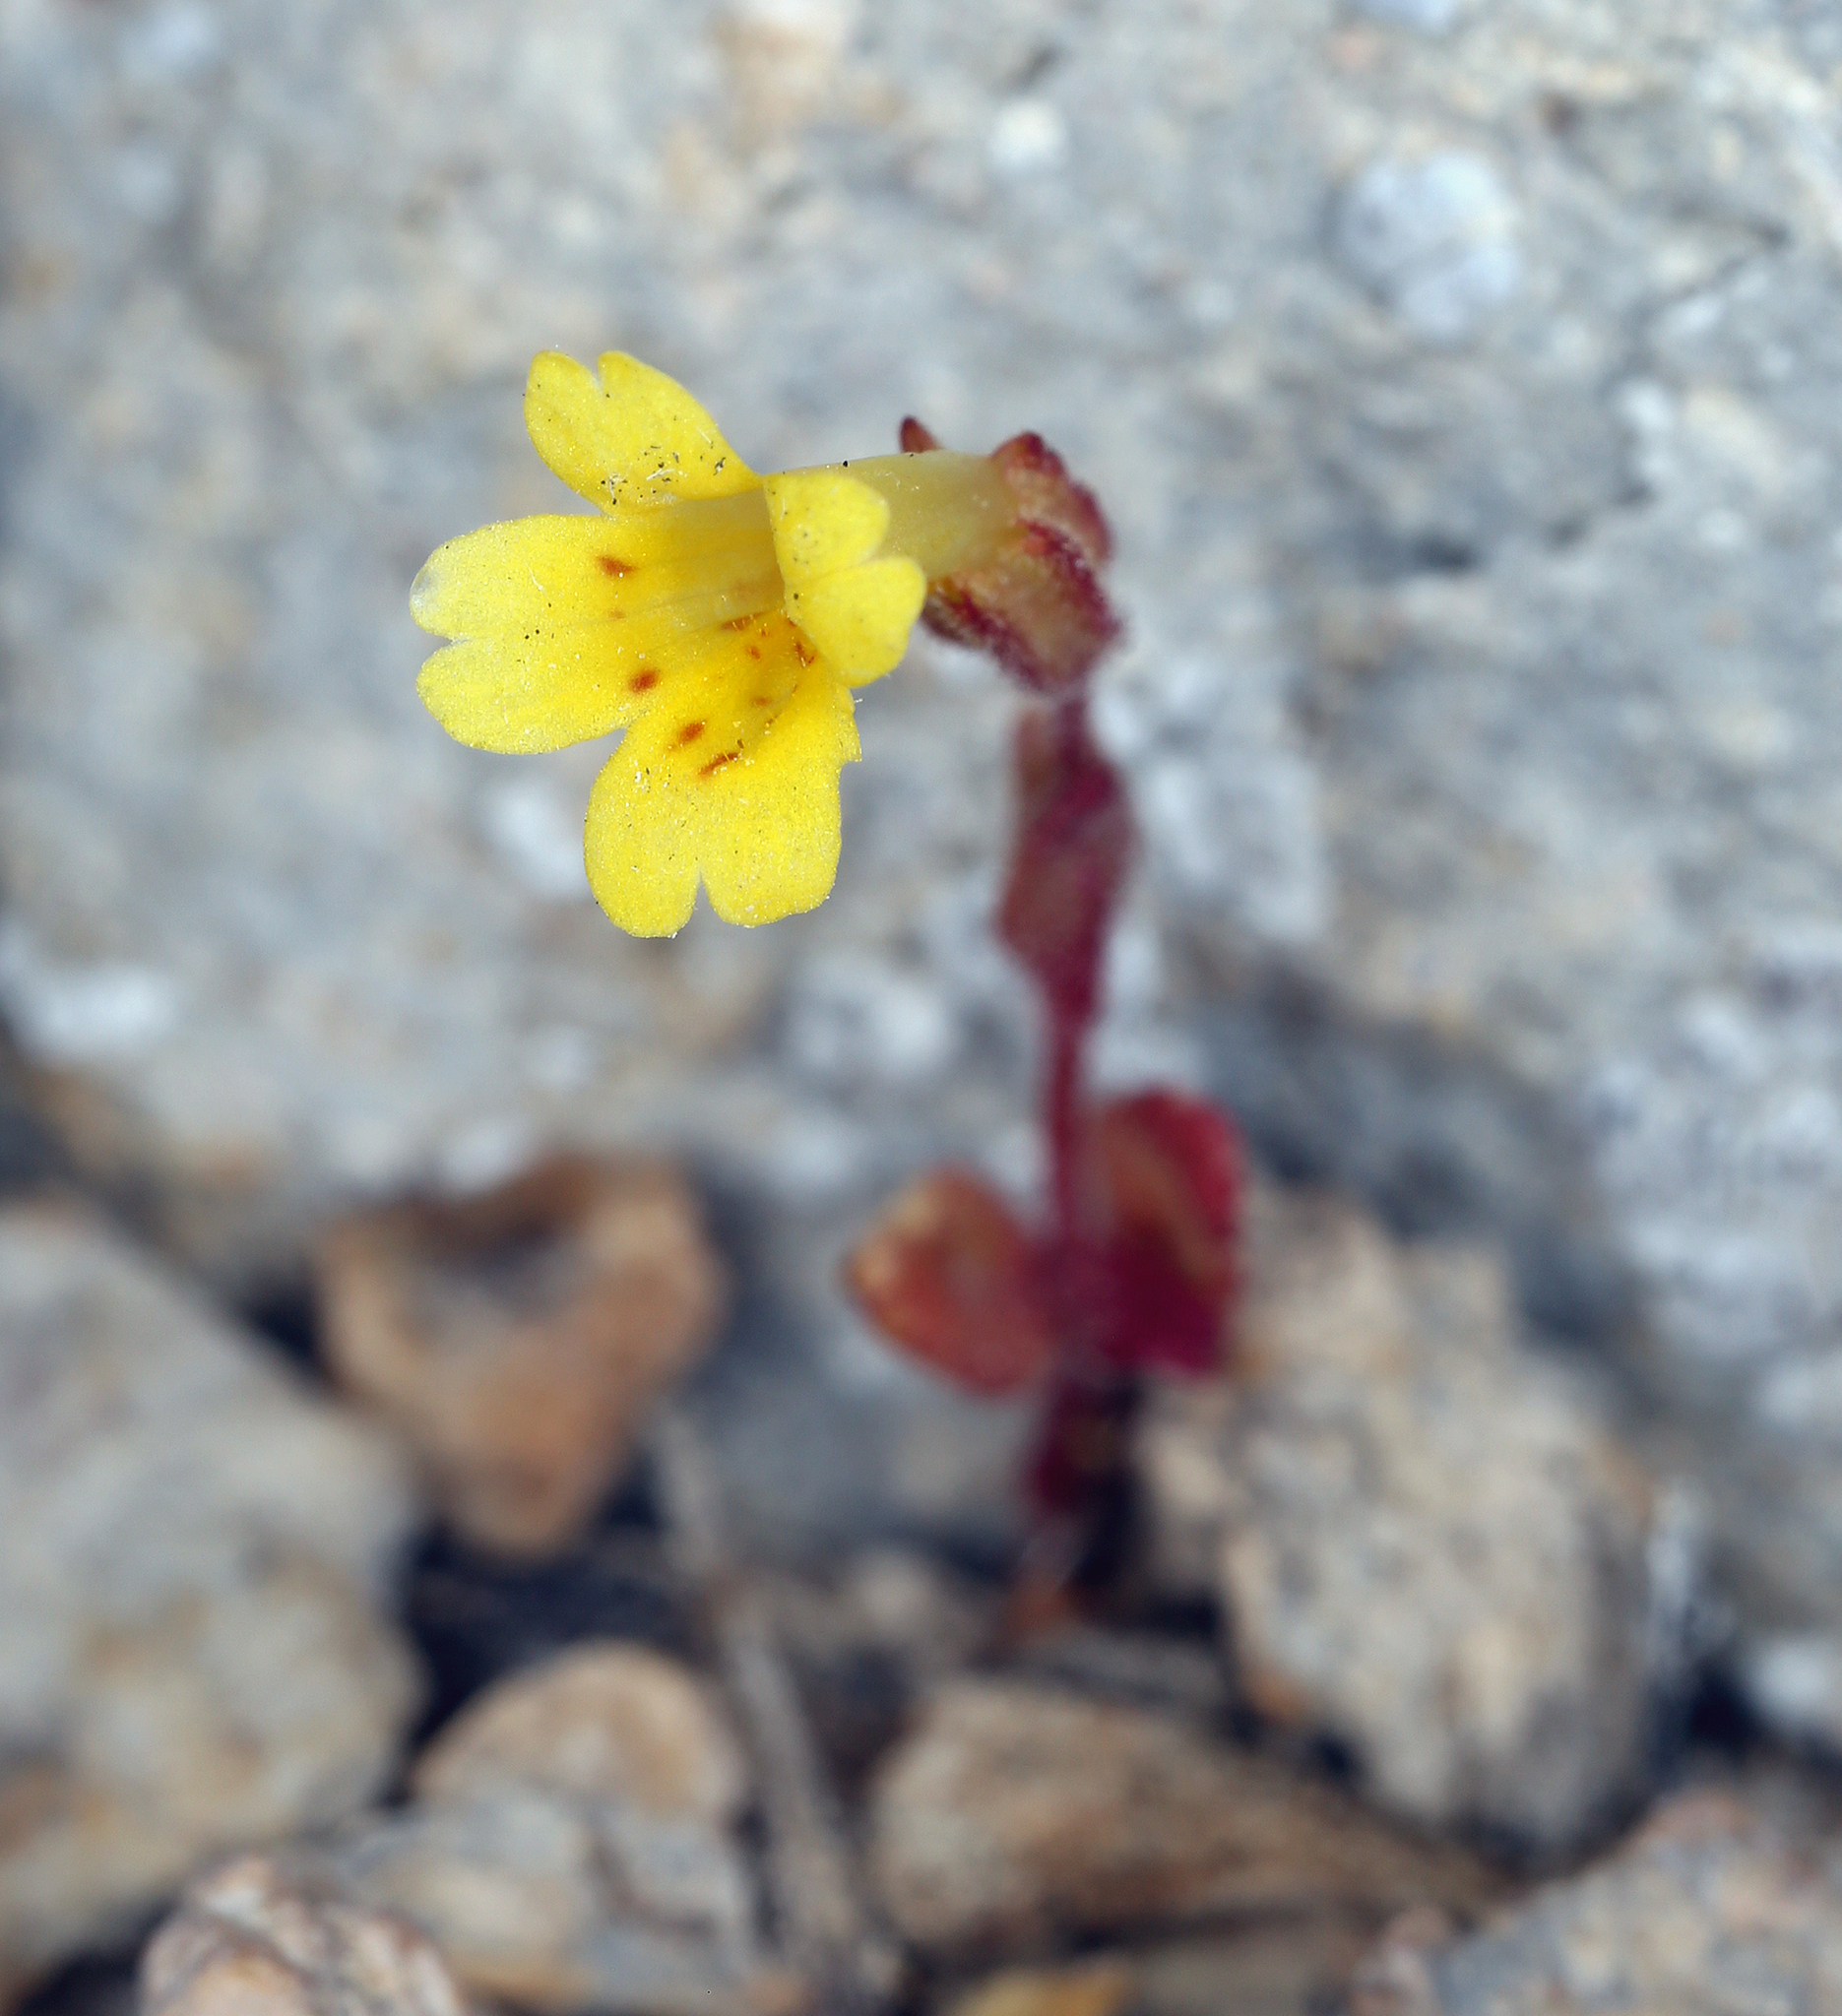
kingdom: Plantae
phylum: Tracheophyta
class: Magnoliopsida
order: Lamiales
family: Phrymaceae
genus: Erythranthe
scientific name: Erythranthe calcicola
